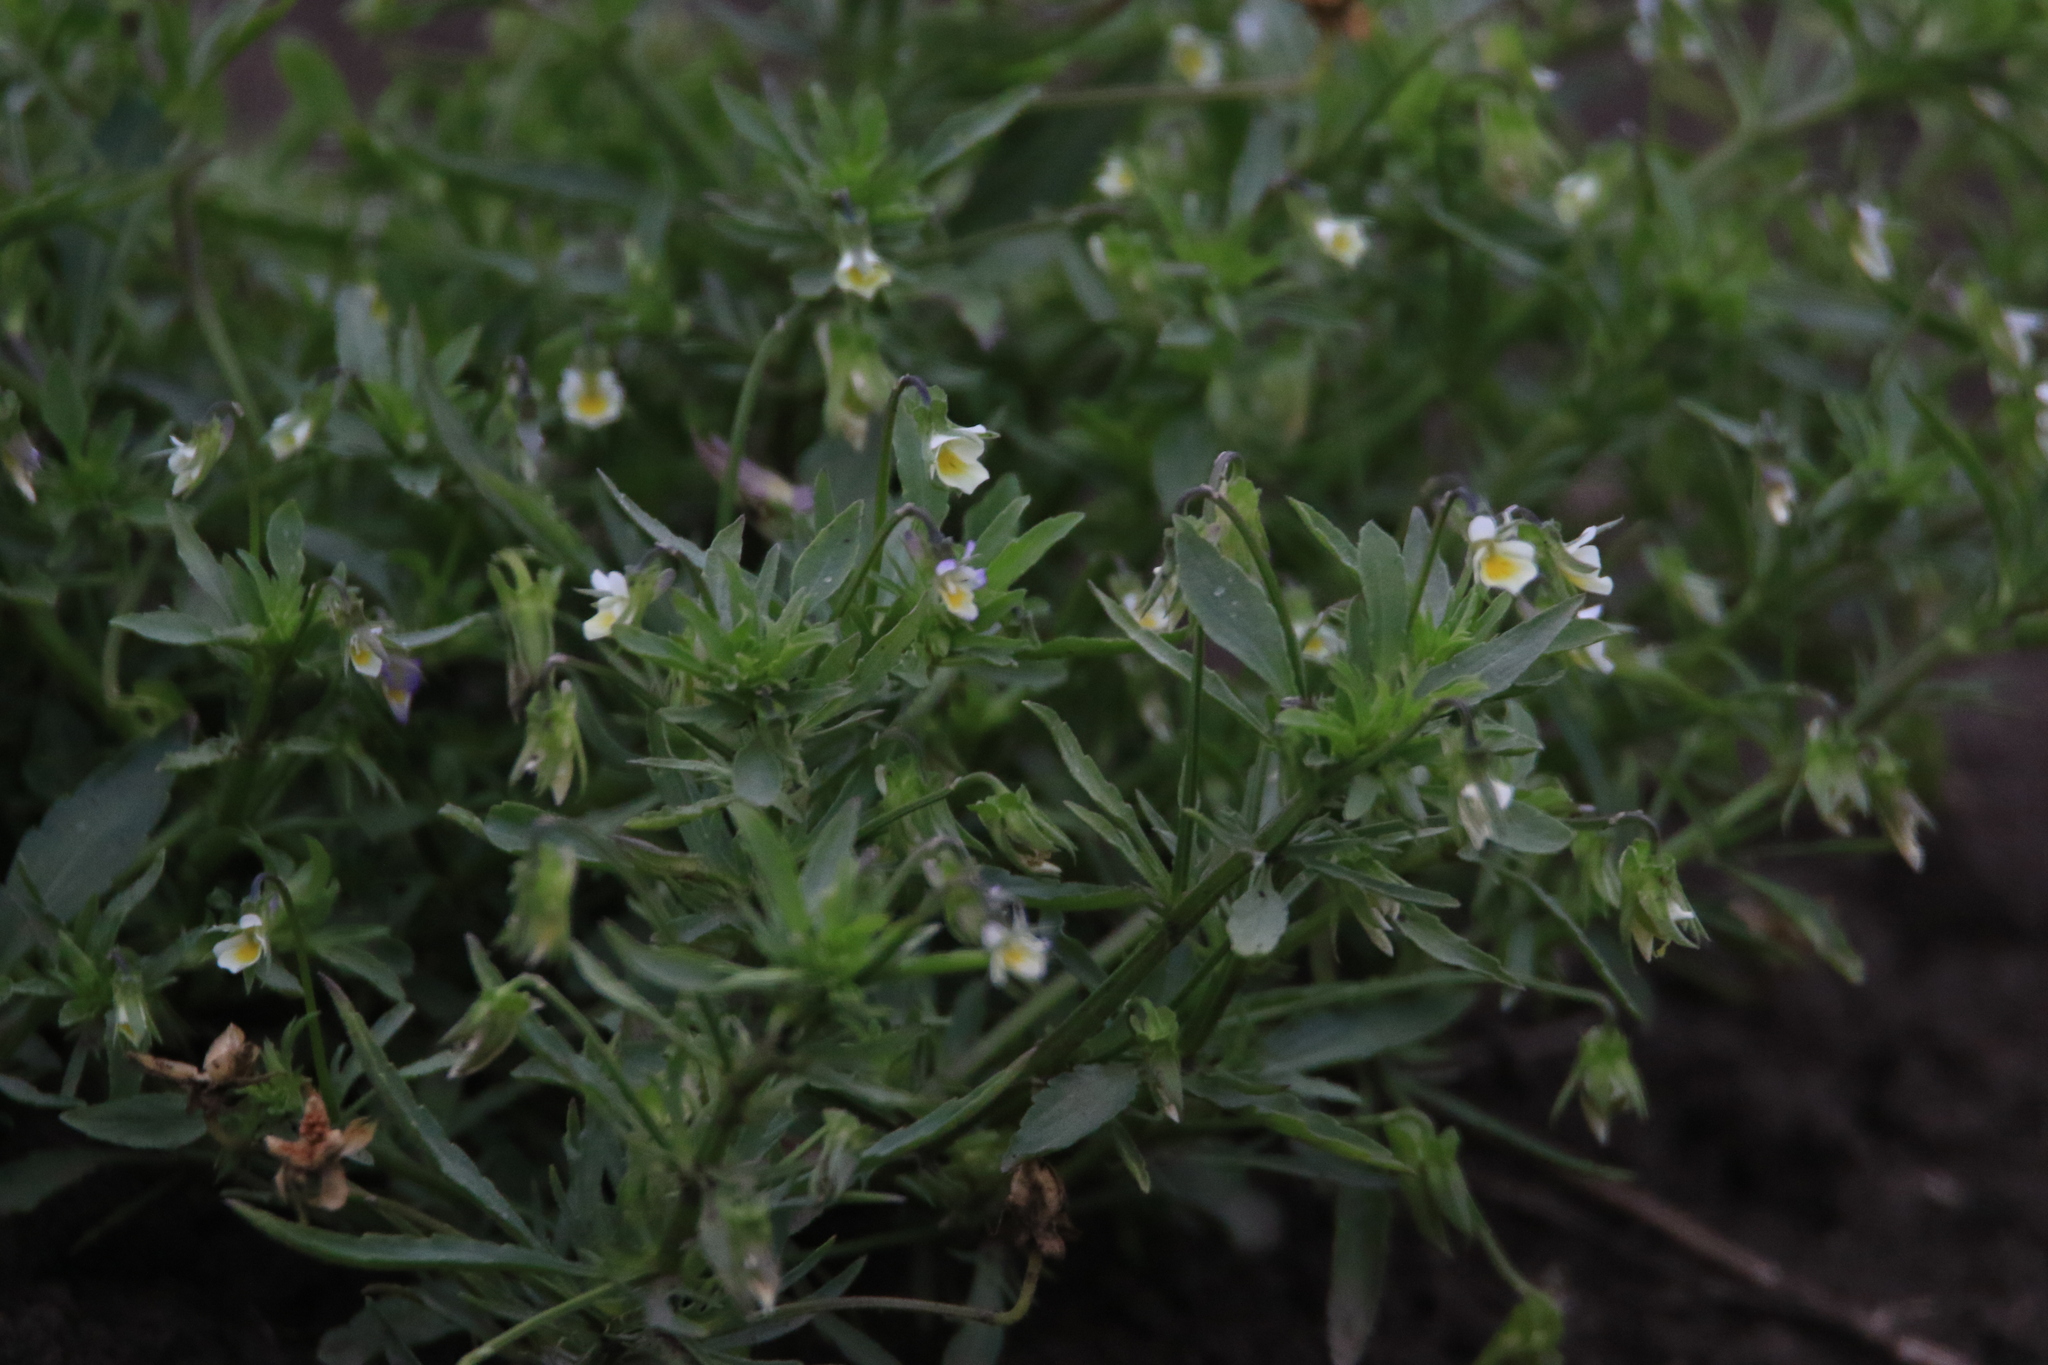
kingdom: Plantae
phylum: Tracheophyta
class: Magnoliopsida
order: Malpighiales
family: Violaceae
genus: Viola
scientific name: Viola arvensis
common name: Field pansy
